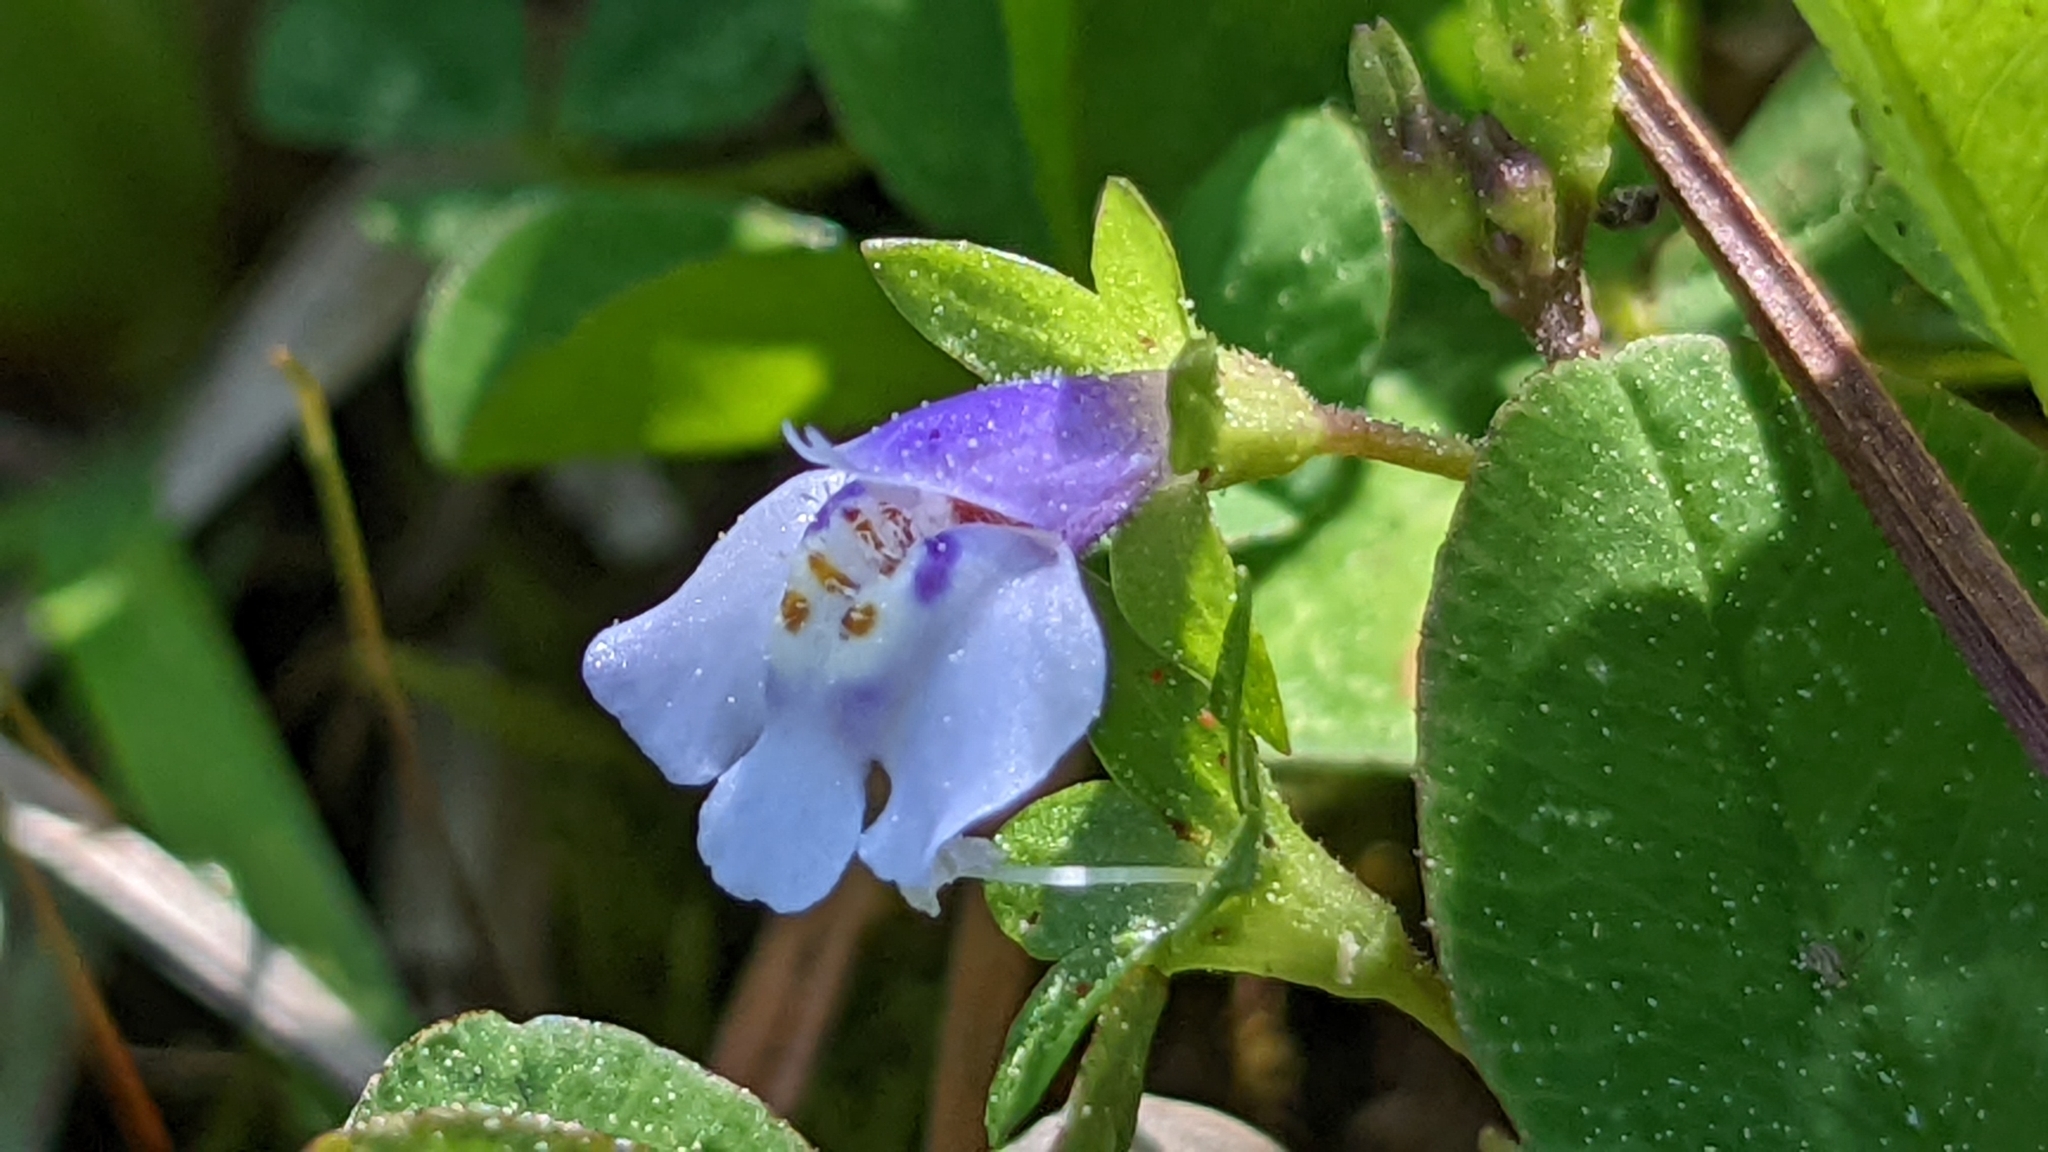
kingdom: Plantae
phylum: Tracheophyta
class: Magnoliopsida
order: Lamiales
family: Mazaceae
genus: Mazus
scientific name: Mazus pumilus
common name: Japanese mazus
